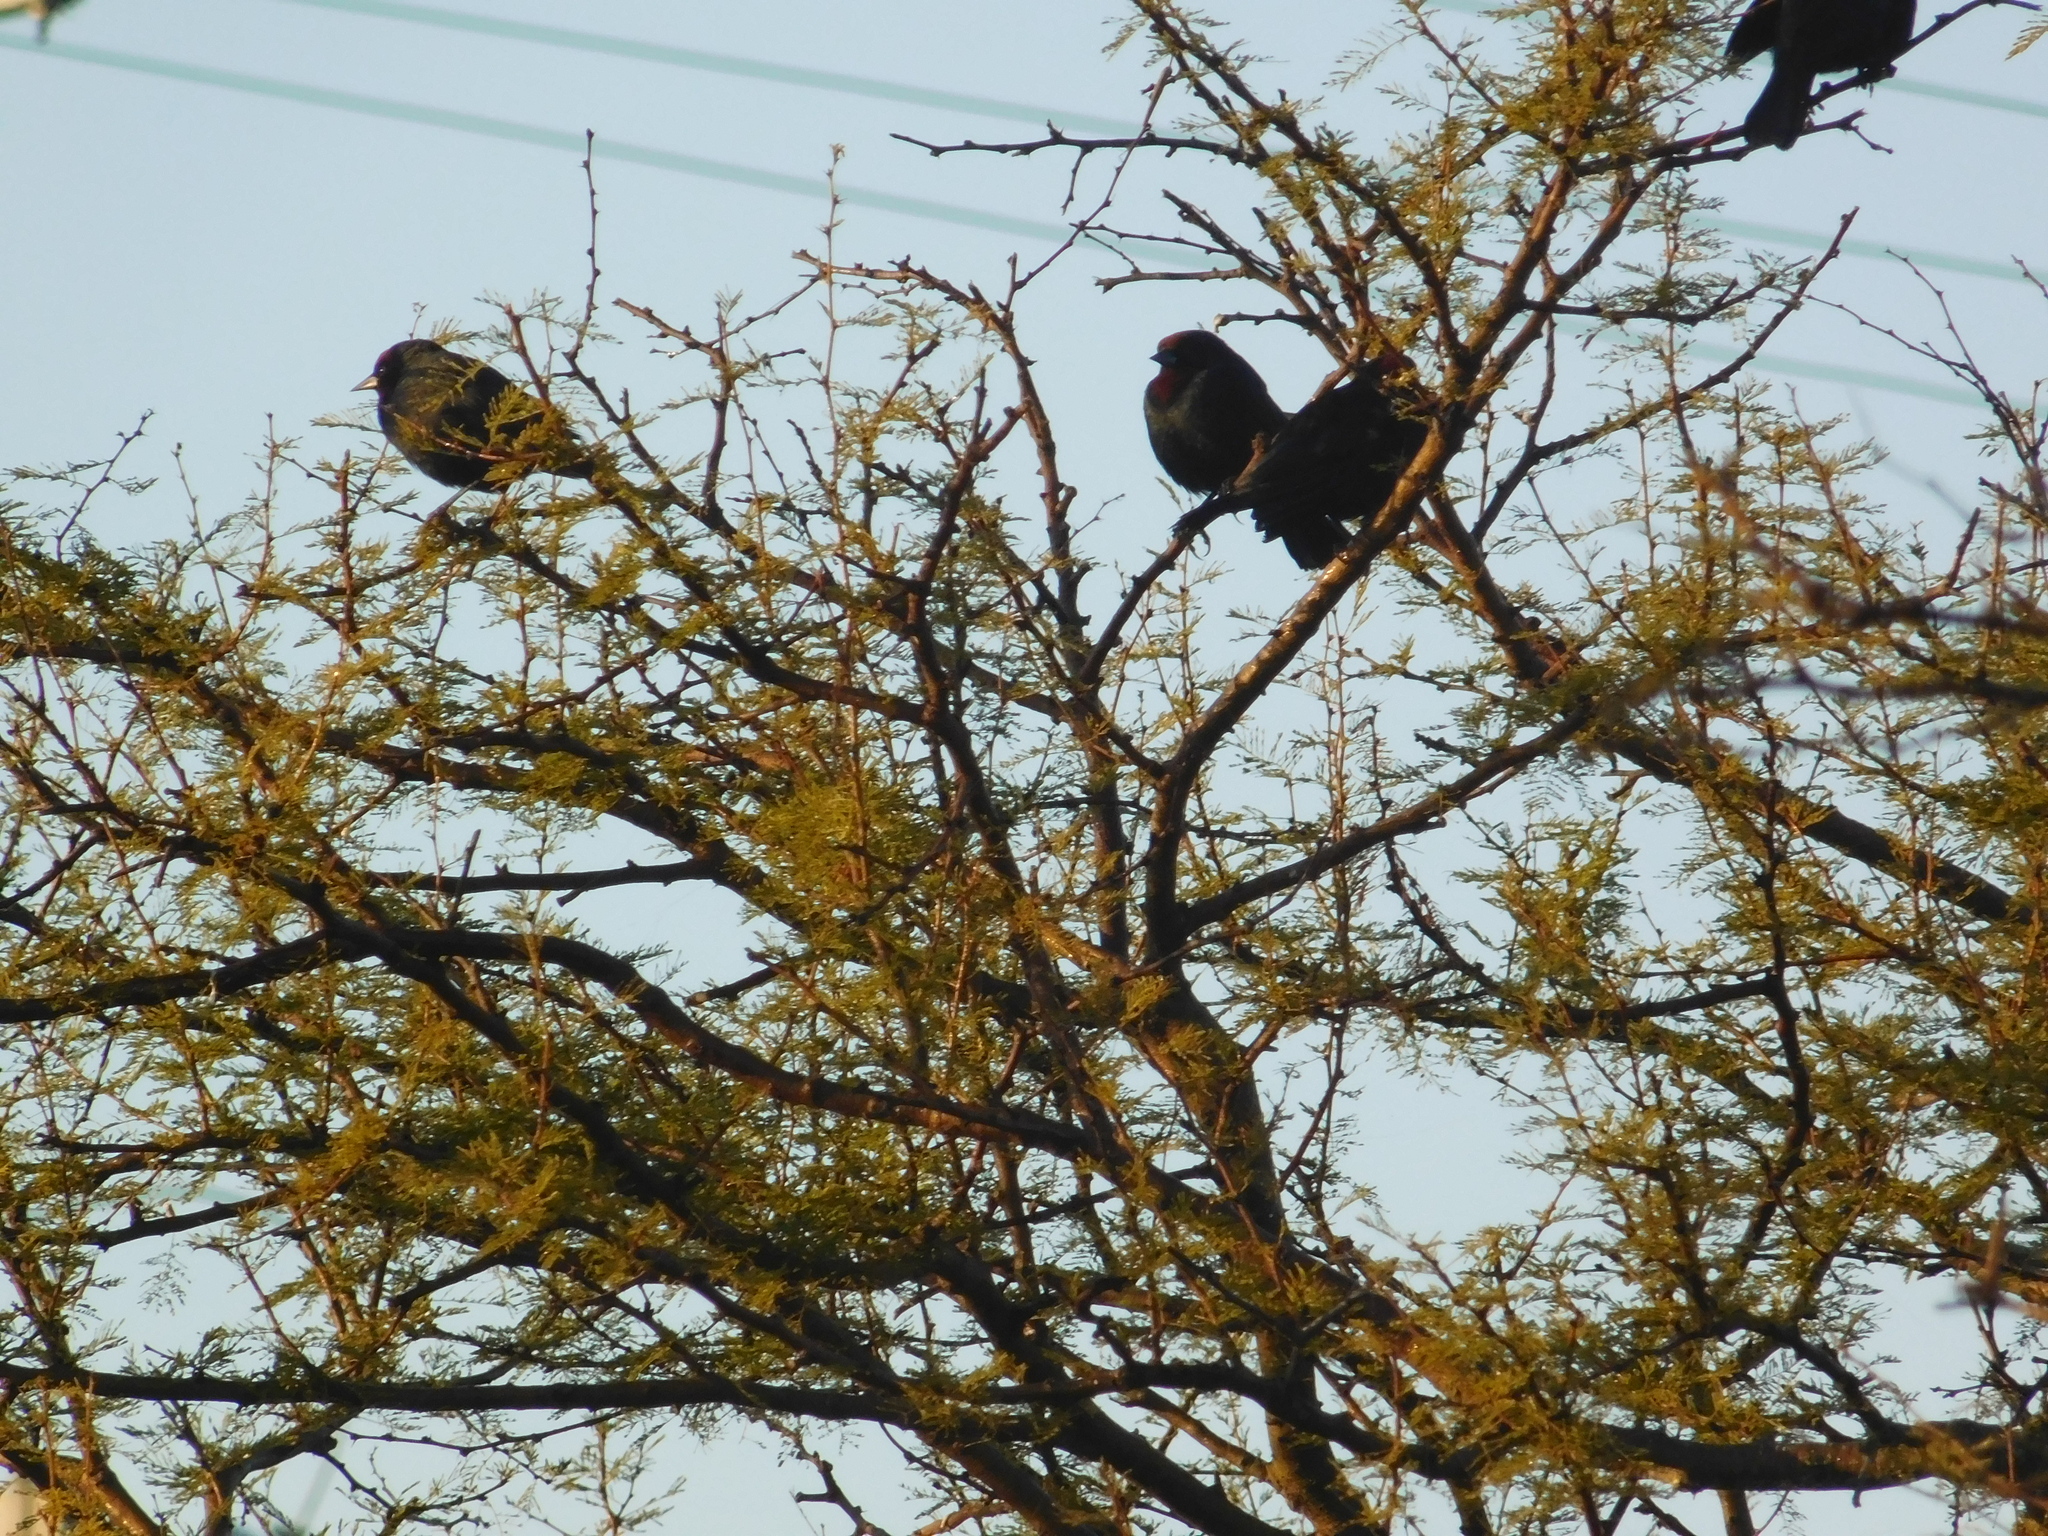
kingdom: Animalia
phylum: Chordata
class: Aves
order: Passeriformes
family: Icteridae
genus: Chrysomus
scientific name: Chrysomus ruficapillus
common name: Chestnut-capped blackbird
